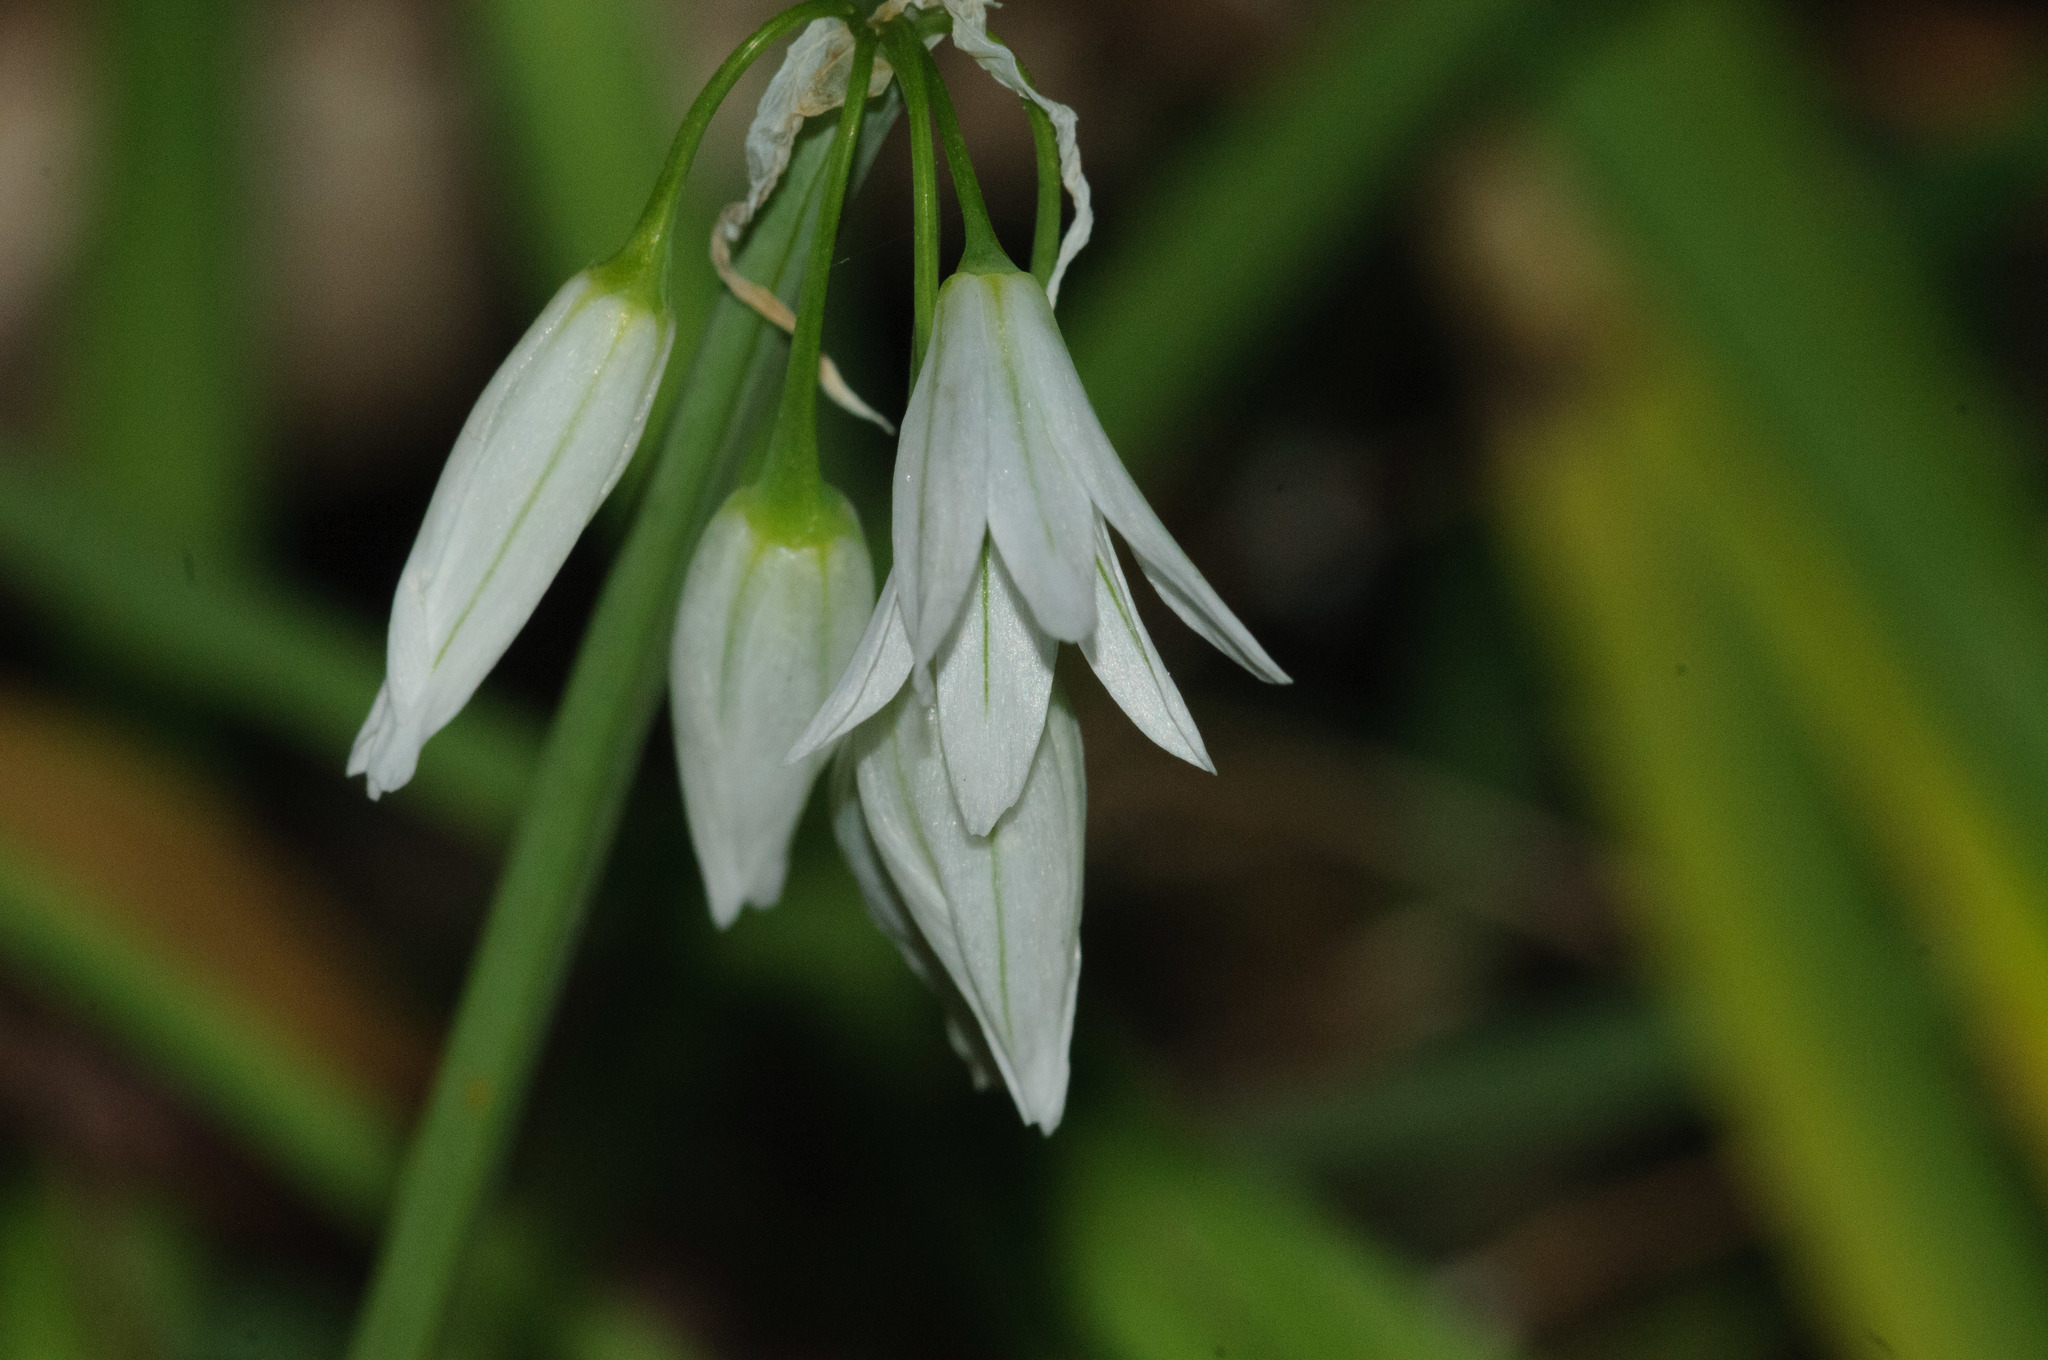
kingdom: Plantae
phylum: Tracheophyta
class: Liliopsida
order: Asparagales
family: Amaryllidaceae
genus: Allium
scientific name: Allium triquetrum
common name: Three-cornered garlic
